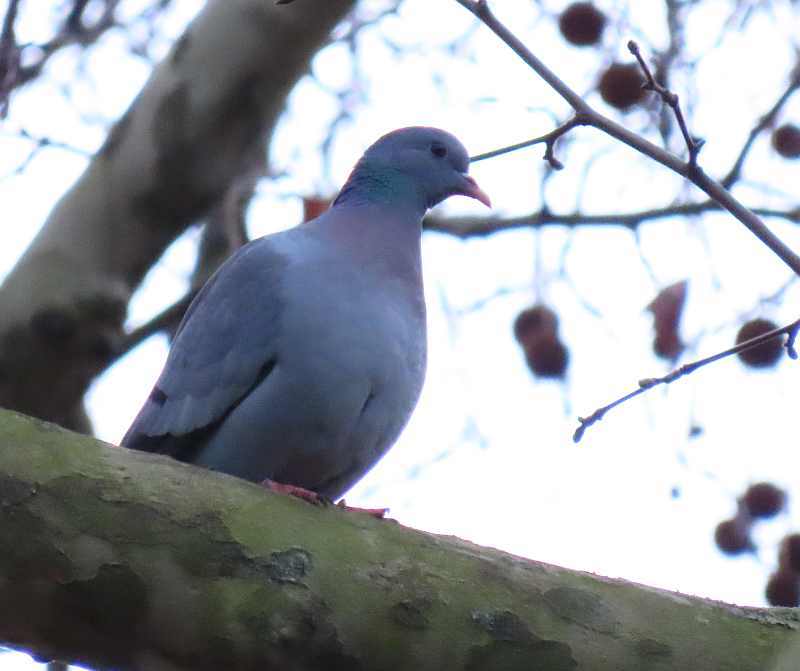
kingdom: Animalia
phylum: Chordata
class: Aves
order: Columbiformes
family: Columbidae
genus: Columba
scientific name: Columba oenas
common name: Stock dove
